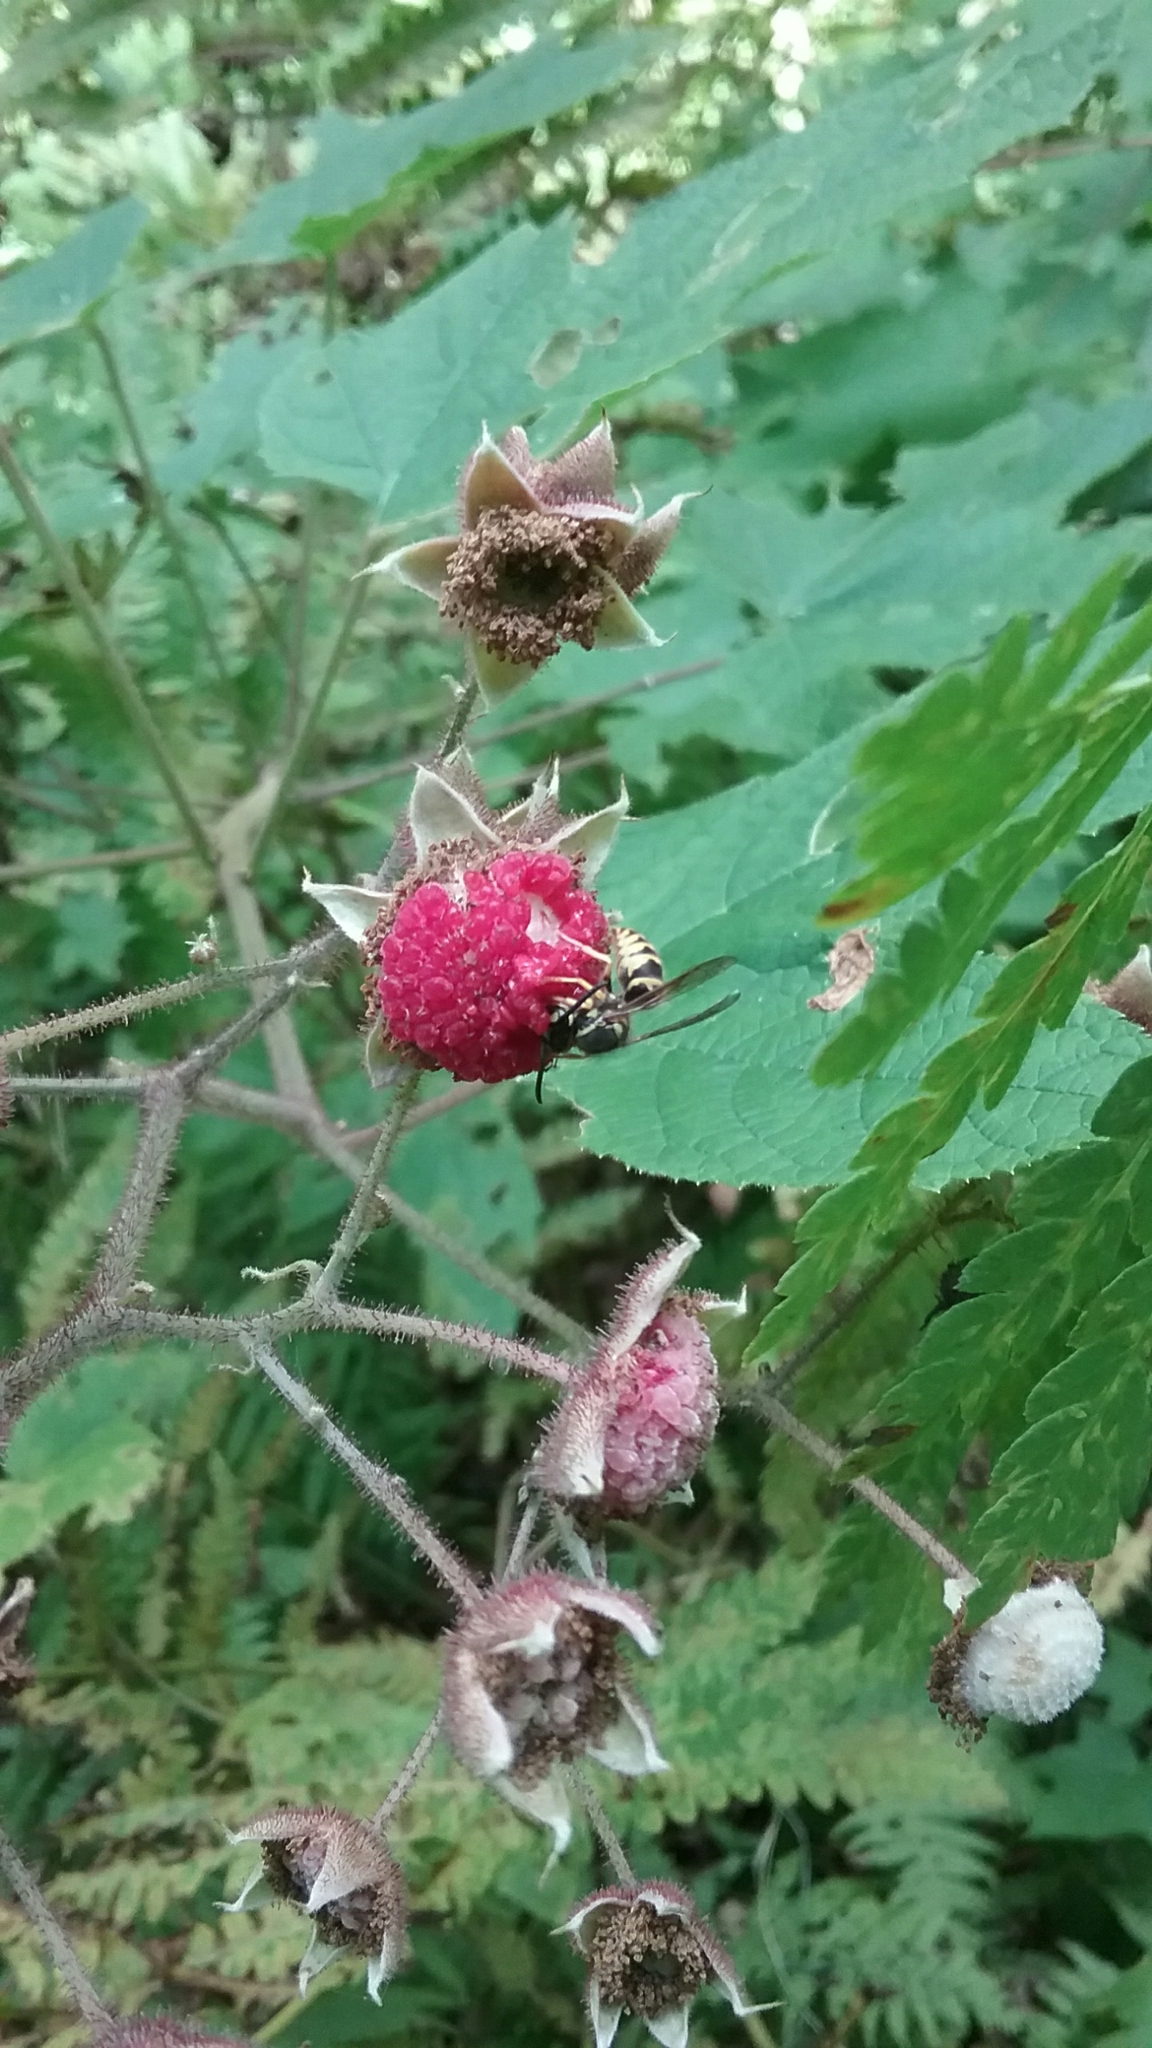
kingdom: Animalia
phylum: Arthropoda
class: Insecta
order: Hymenoptera
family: Vespidae
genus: Vespula
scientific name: Vespula maculifrons
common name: Eastern yellowjacket
